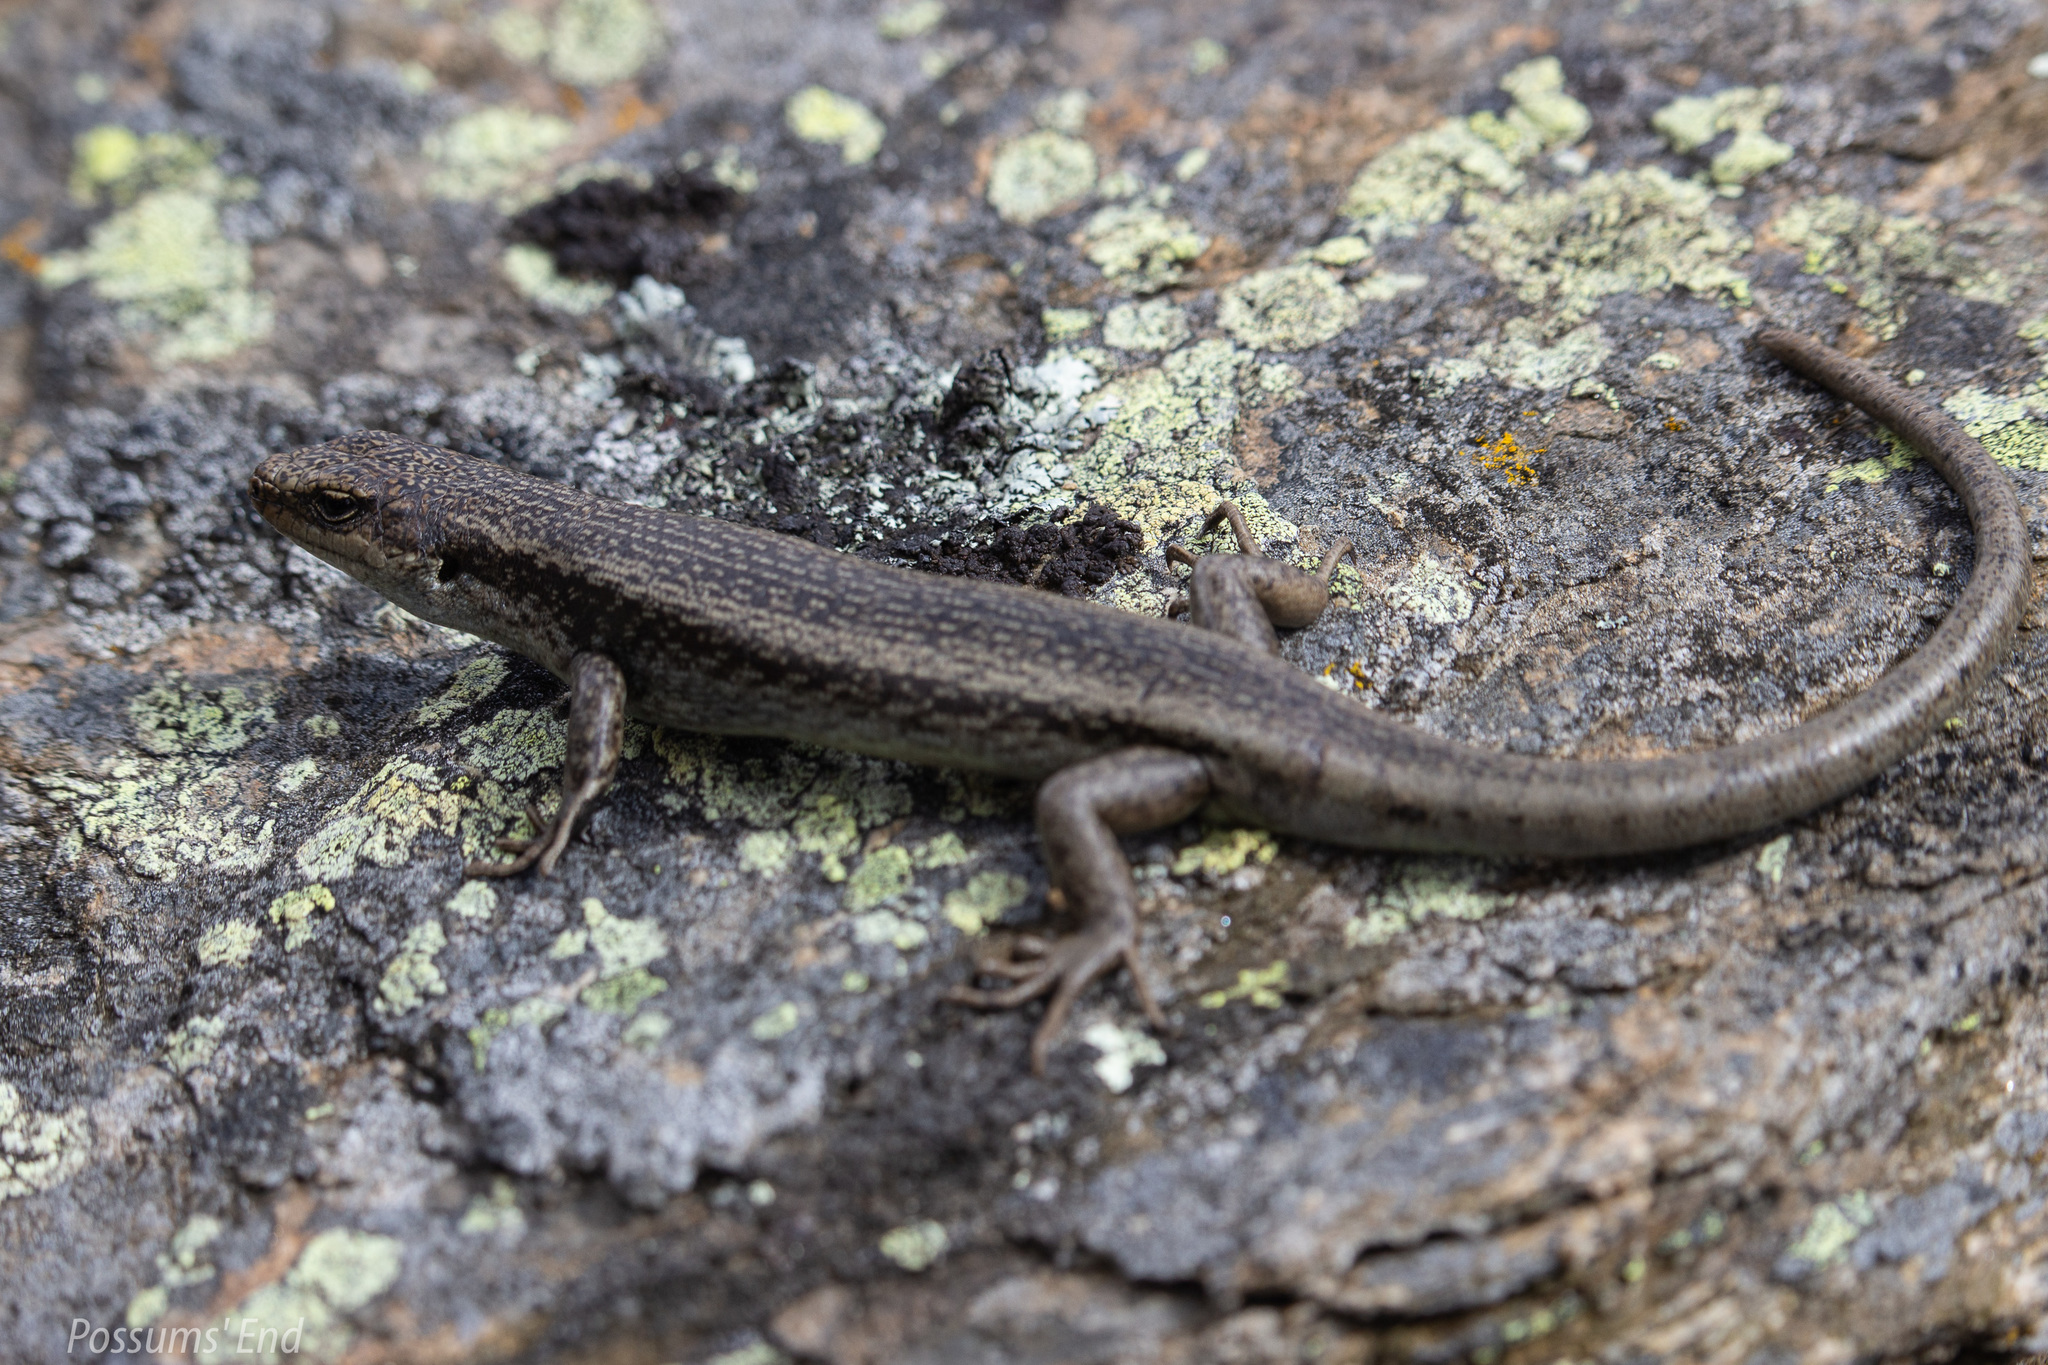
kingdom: Animalia
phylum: Chordata
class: Squamata
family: Scincidae
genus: Oligosoma
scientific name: Oligosoma grande
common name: Grand skink
